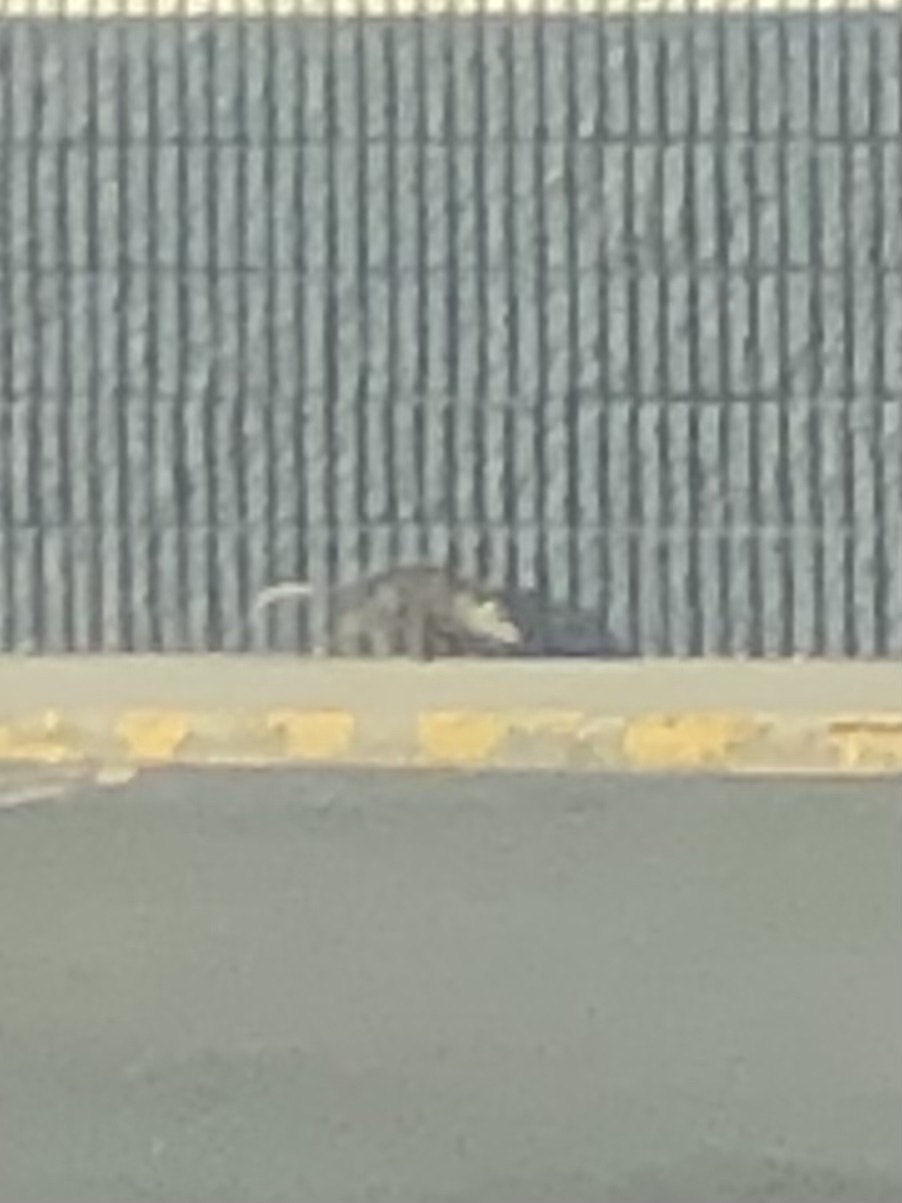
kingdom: Animalia
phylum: Chordata
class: Mammalia
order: Didelphimorphia
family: Didelphidae
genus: Didelphis
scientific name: Didelphis virginiana
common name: Virginia opossum
